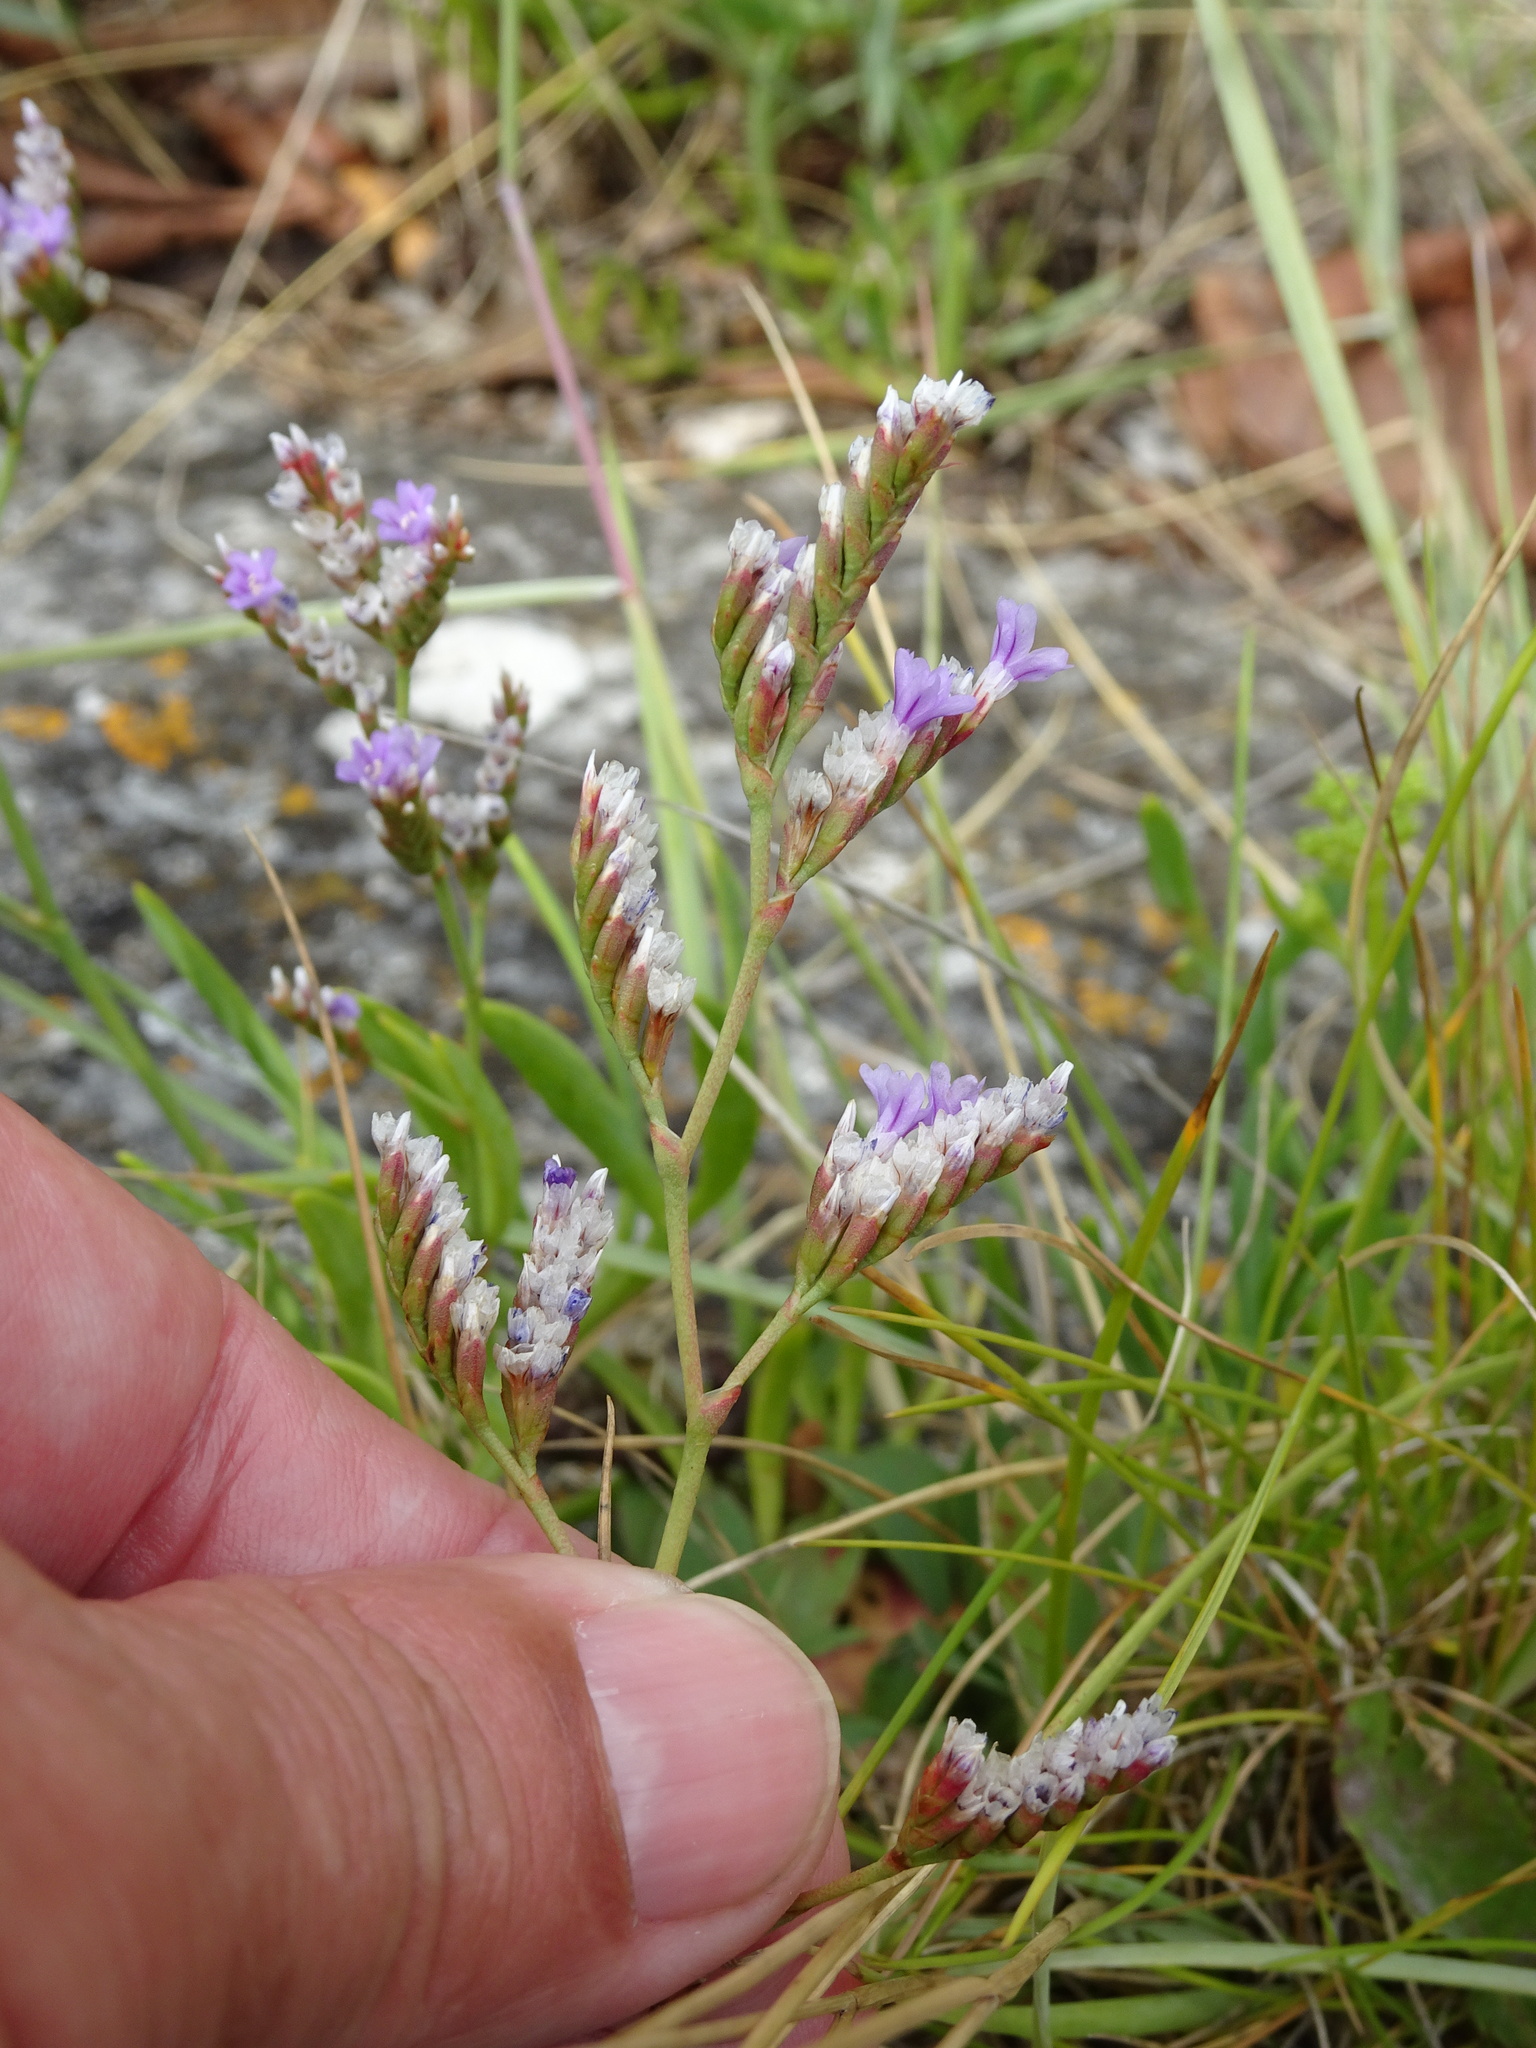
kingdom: Plantae
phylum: Tracheophyta
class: Magnoliopsida
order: Caryophyllales
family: Plumbaginaceae
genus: Limonium
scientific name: Limonium dodartii
